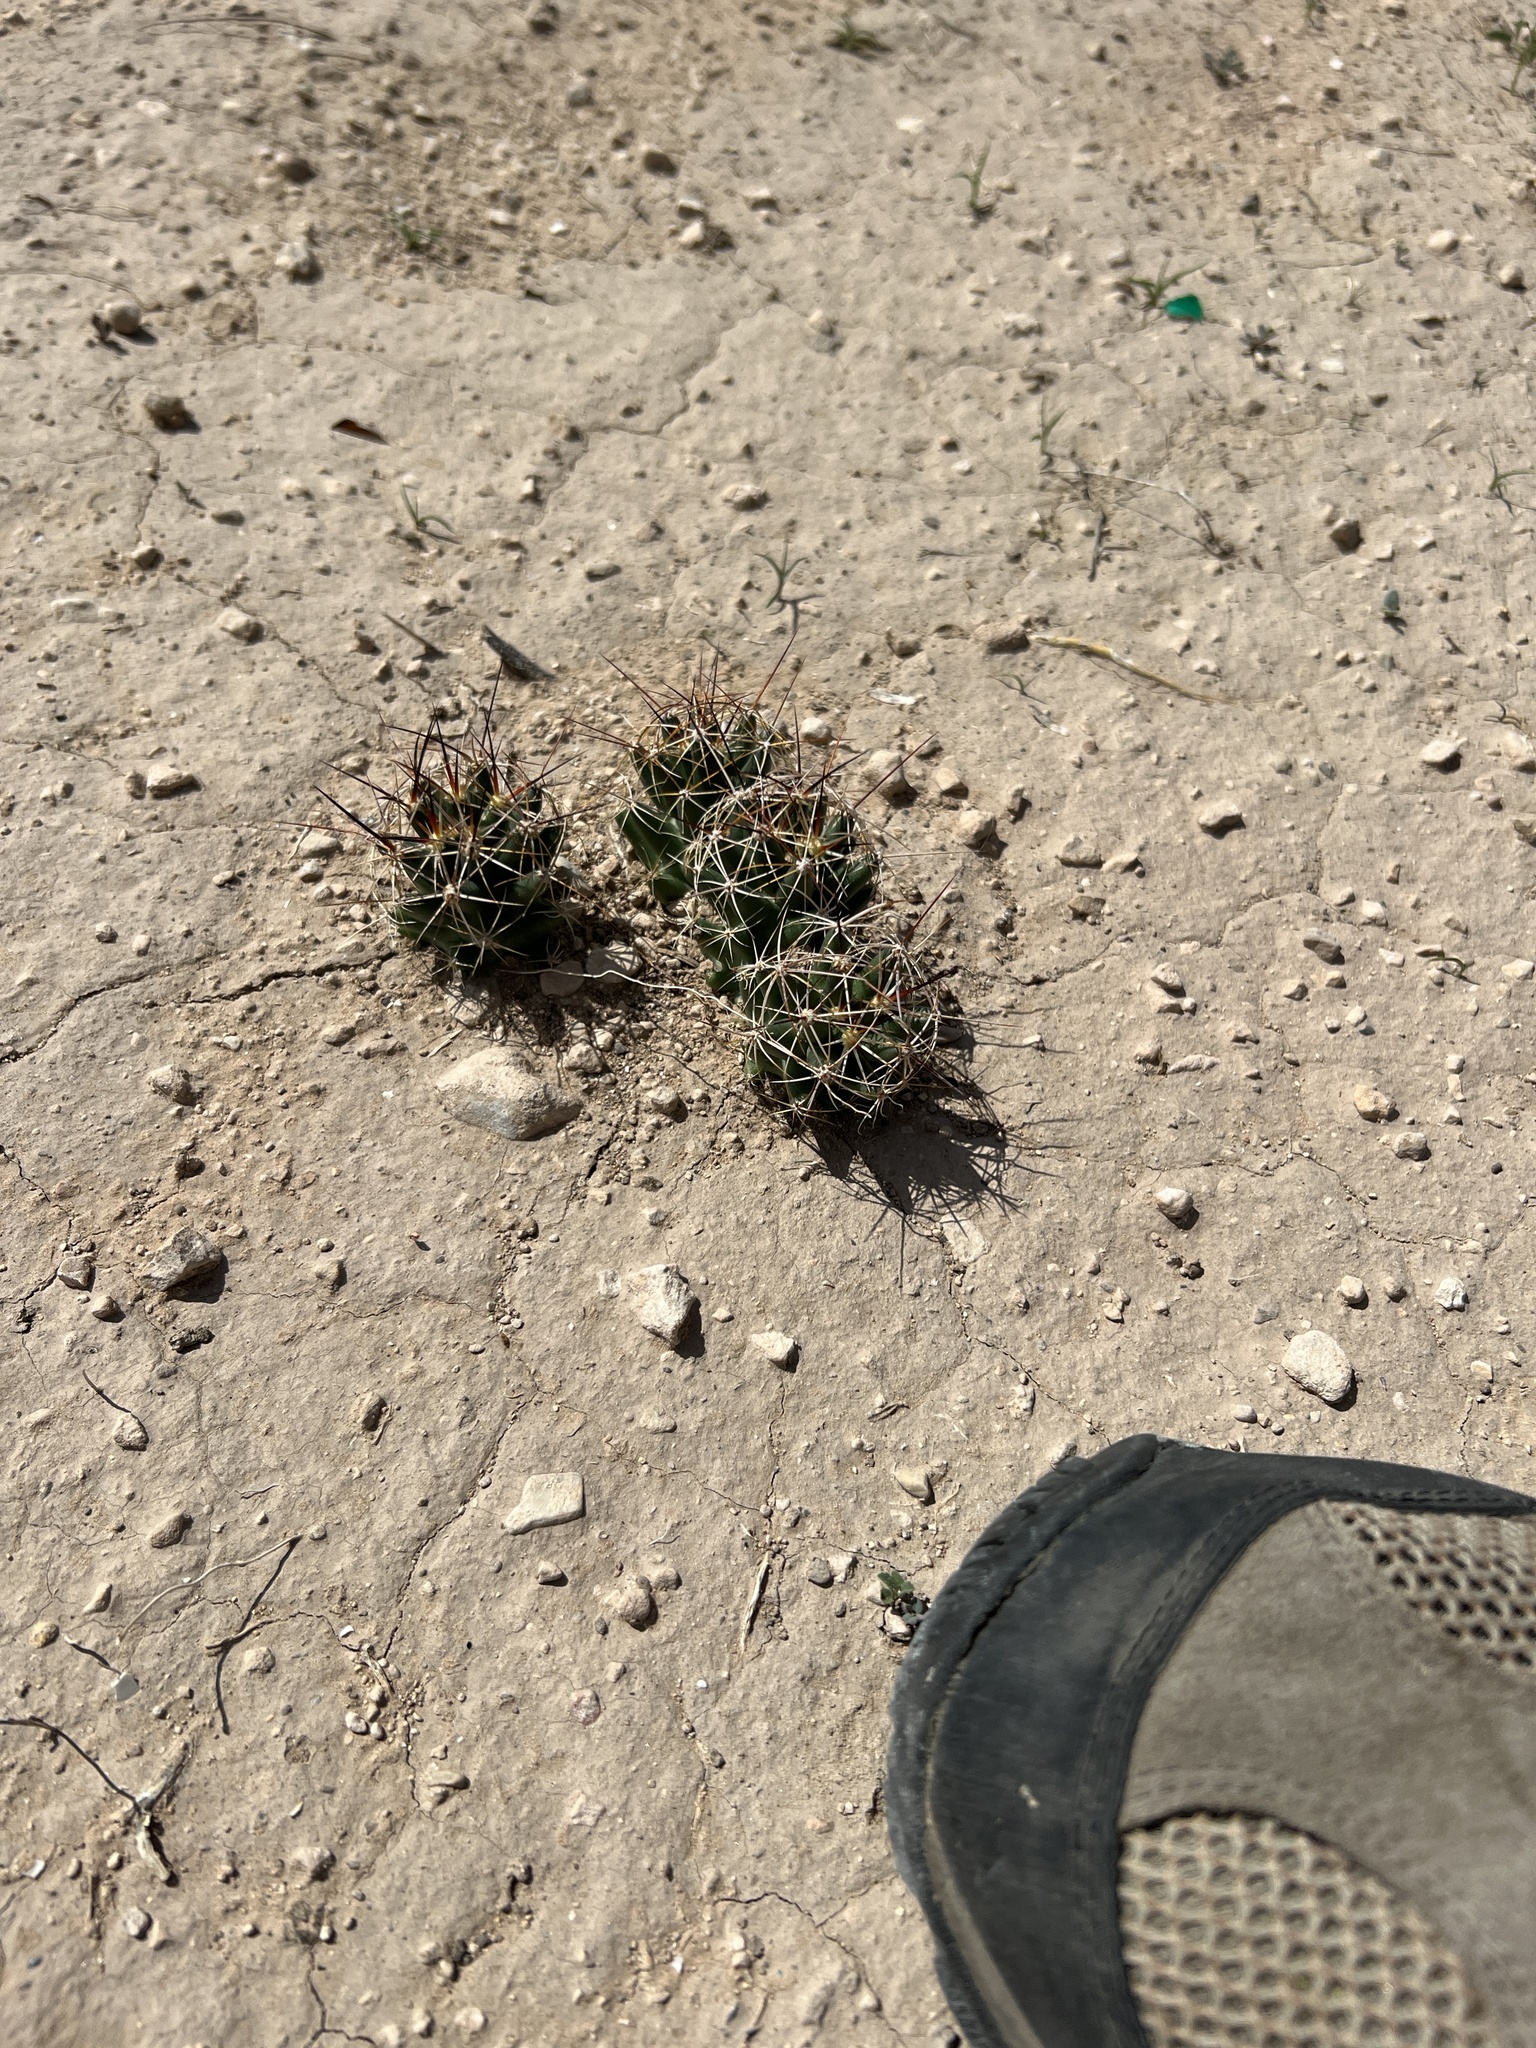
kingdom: Plantae
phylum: Tracheophyta
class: Magnoliopsida
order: Caryophyllales
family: Cactaceae
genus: Coryphantha
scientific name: Coryphantha macromeris
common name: Nipple beehive cactus
